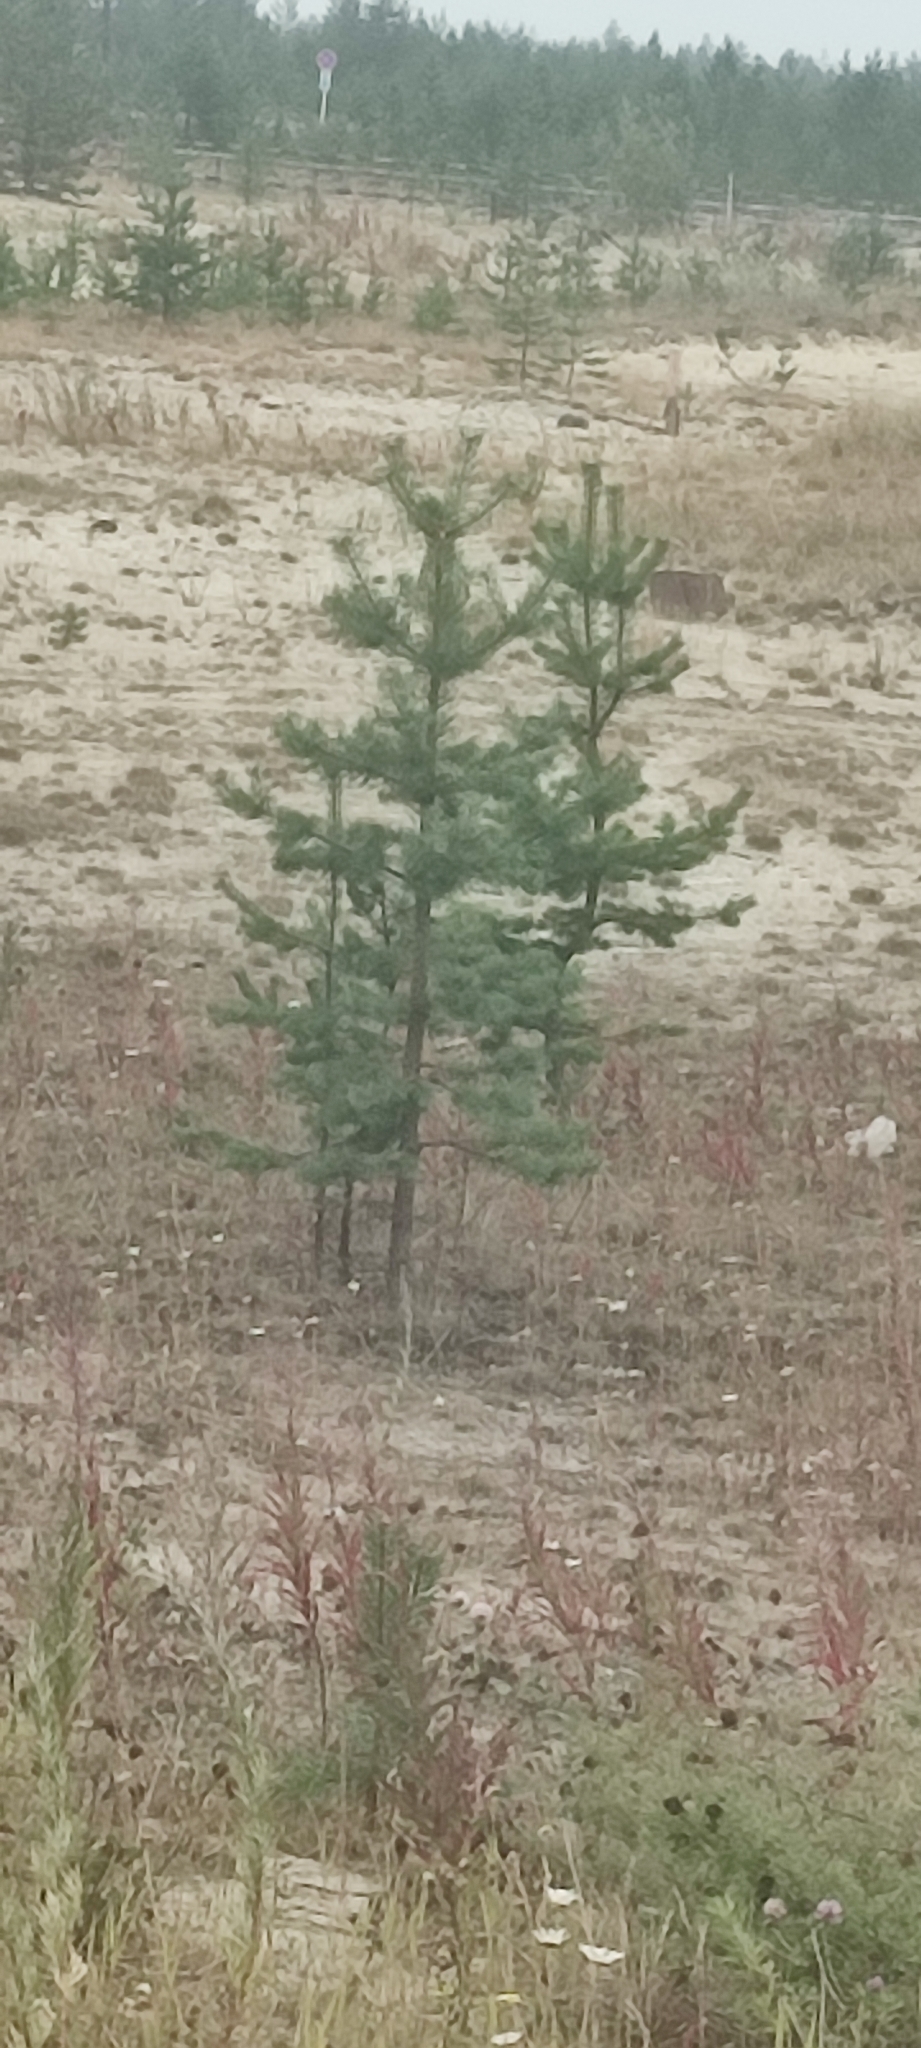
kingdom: Plantae
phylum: Tracheophyta
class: Pinopsida
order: Pinales
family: Pinaceae
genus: Pinus
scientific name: Pinus sylvestris
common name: Scots pine
